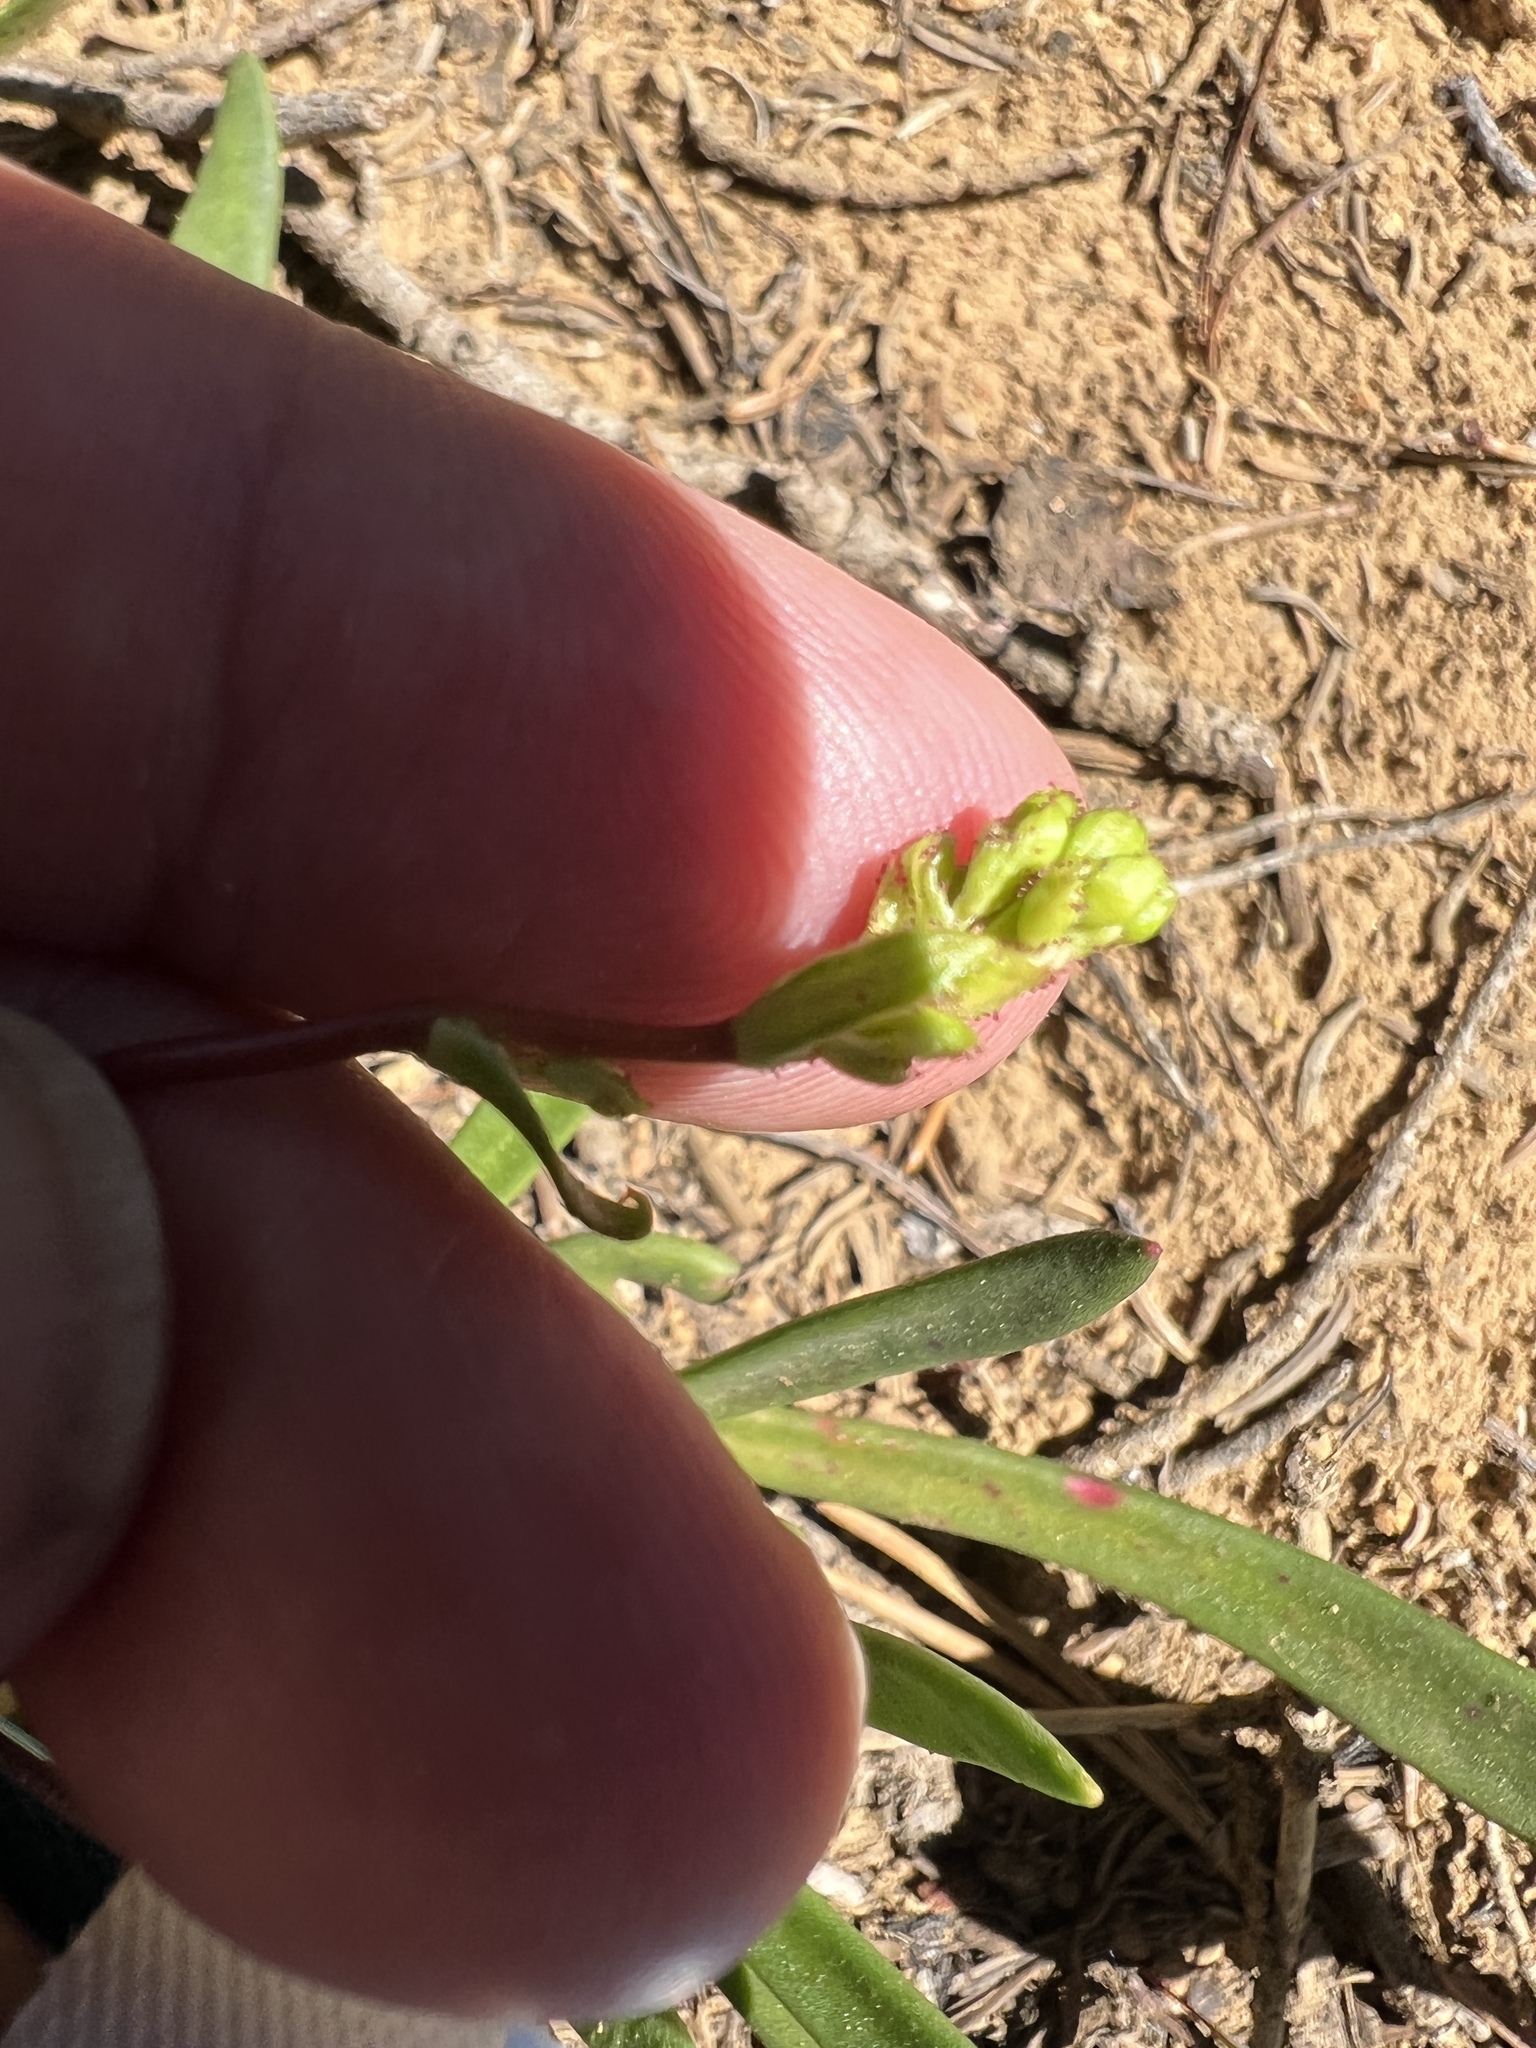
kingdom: Plantae
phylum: Tracheophyta
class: Magnoliopsida
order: Caryophyllales
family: Montiaceae
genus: Lewisia
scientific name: Lewisia columbiana
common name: Columbia lewisia
